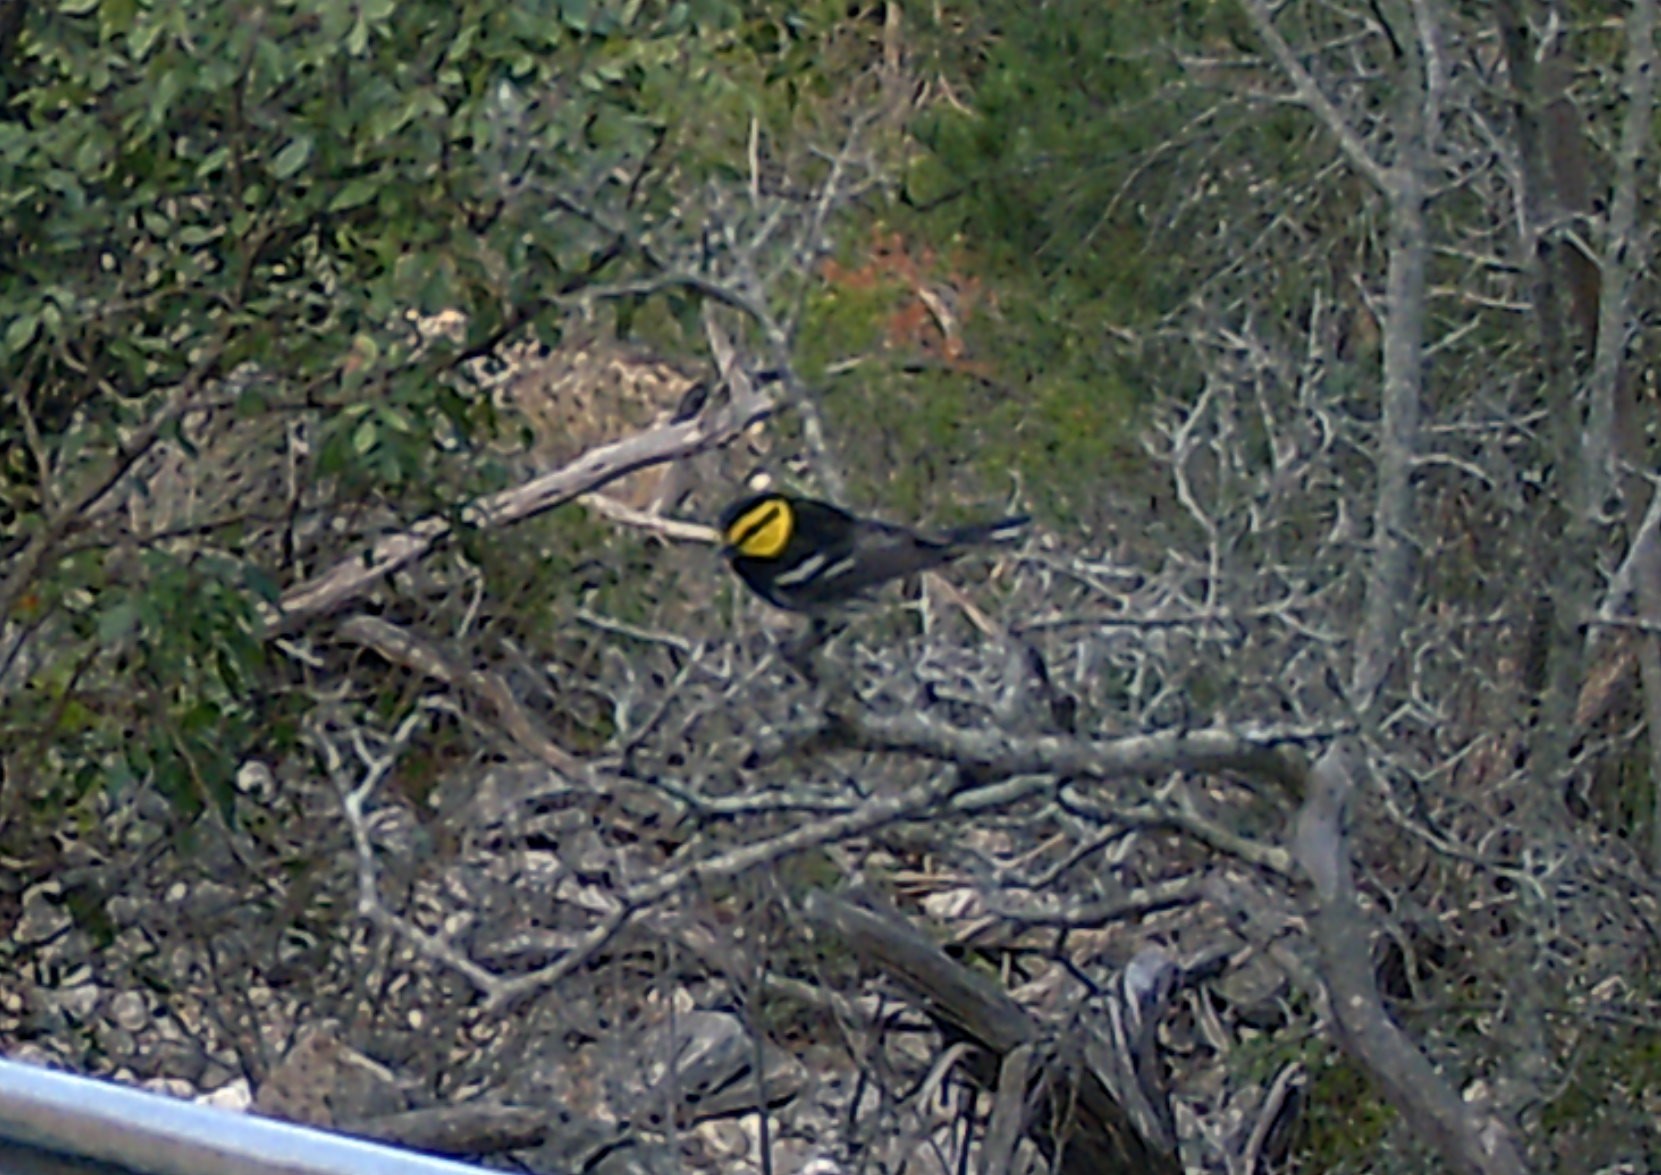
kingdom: Animalia
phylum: Chordata
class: Aves
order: Passeriformes
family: Parulidae
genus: Setophaga
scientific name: Setophaga chrysoparia
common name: Golden-cheeked warbler
